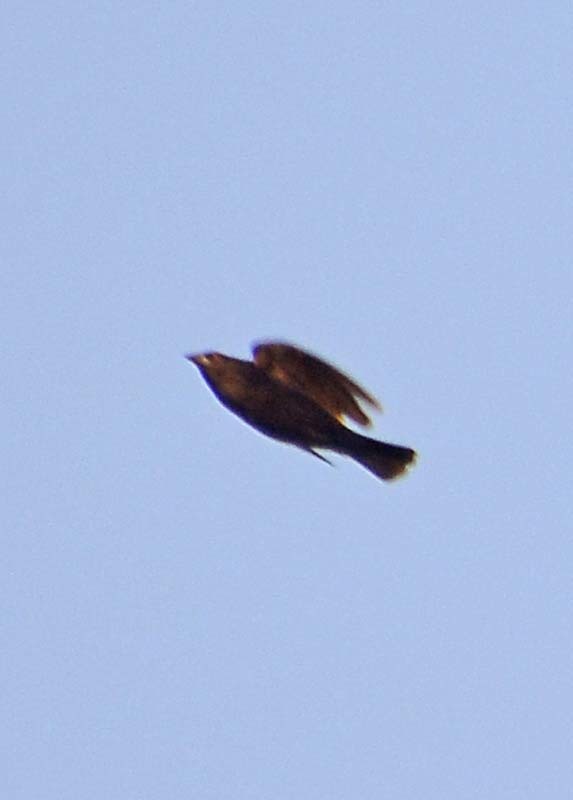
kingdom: Animalia
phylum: Chordata
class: Aves
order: Passeriformes
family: Icteridae
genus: Molothrus
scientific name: Molothrus aeneus
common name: Bronzed cowbird
